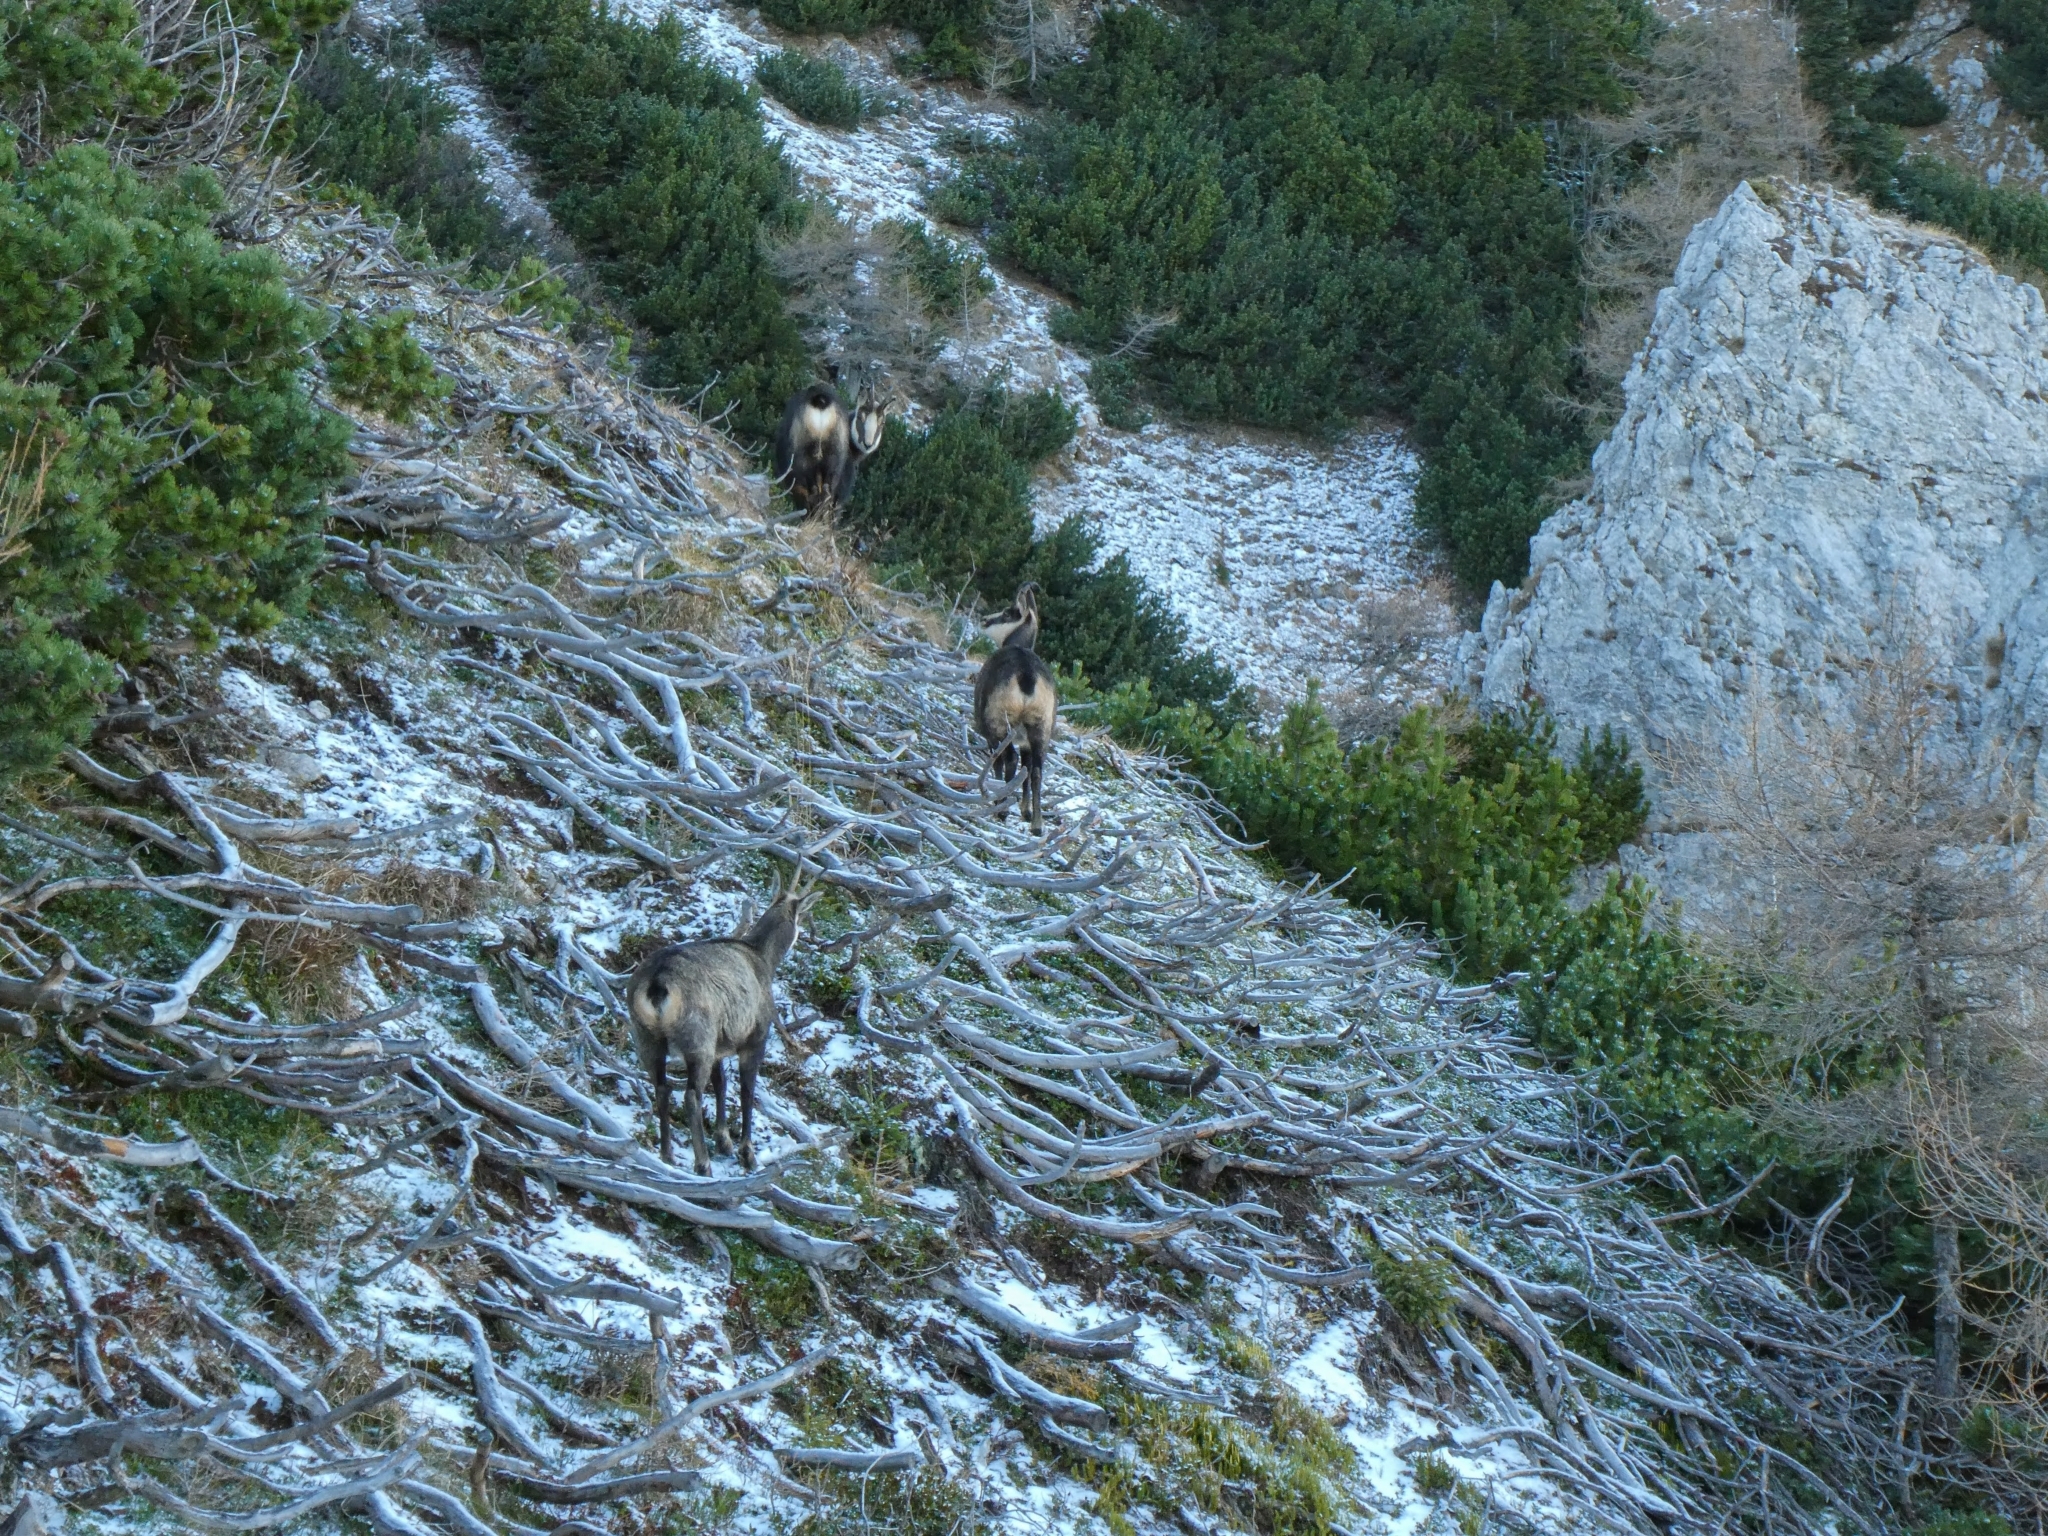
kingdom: Animalia
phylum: Chordata
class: Mammalia
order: Artiodactyla
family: Bovidae
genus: Rupicapra
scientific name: Rupicapra rupicapra
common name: Chamois
